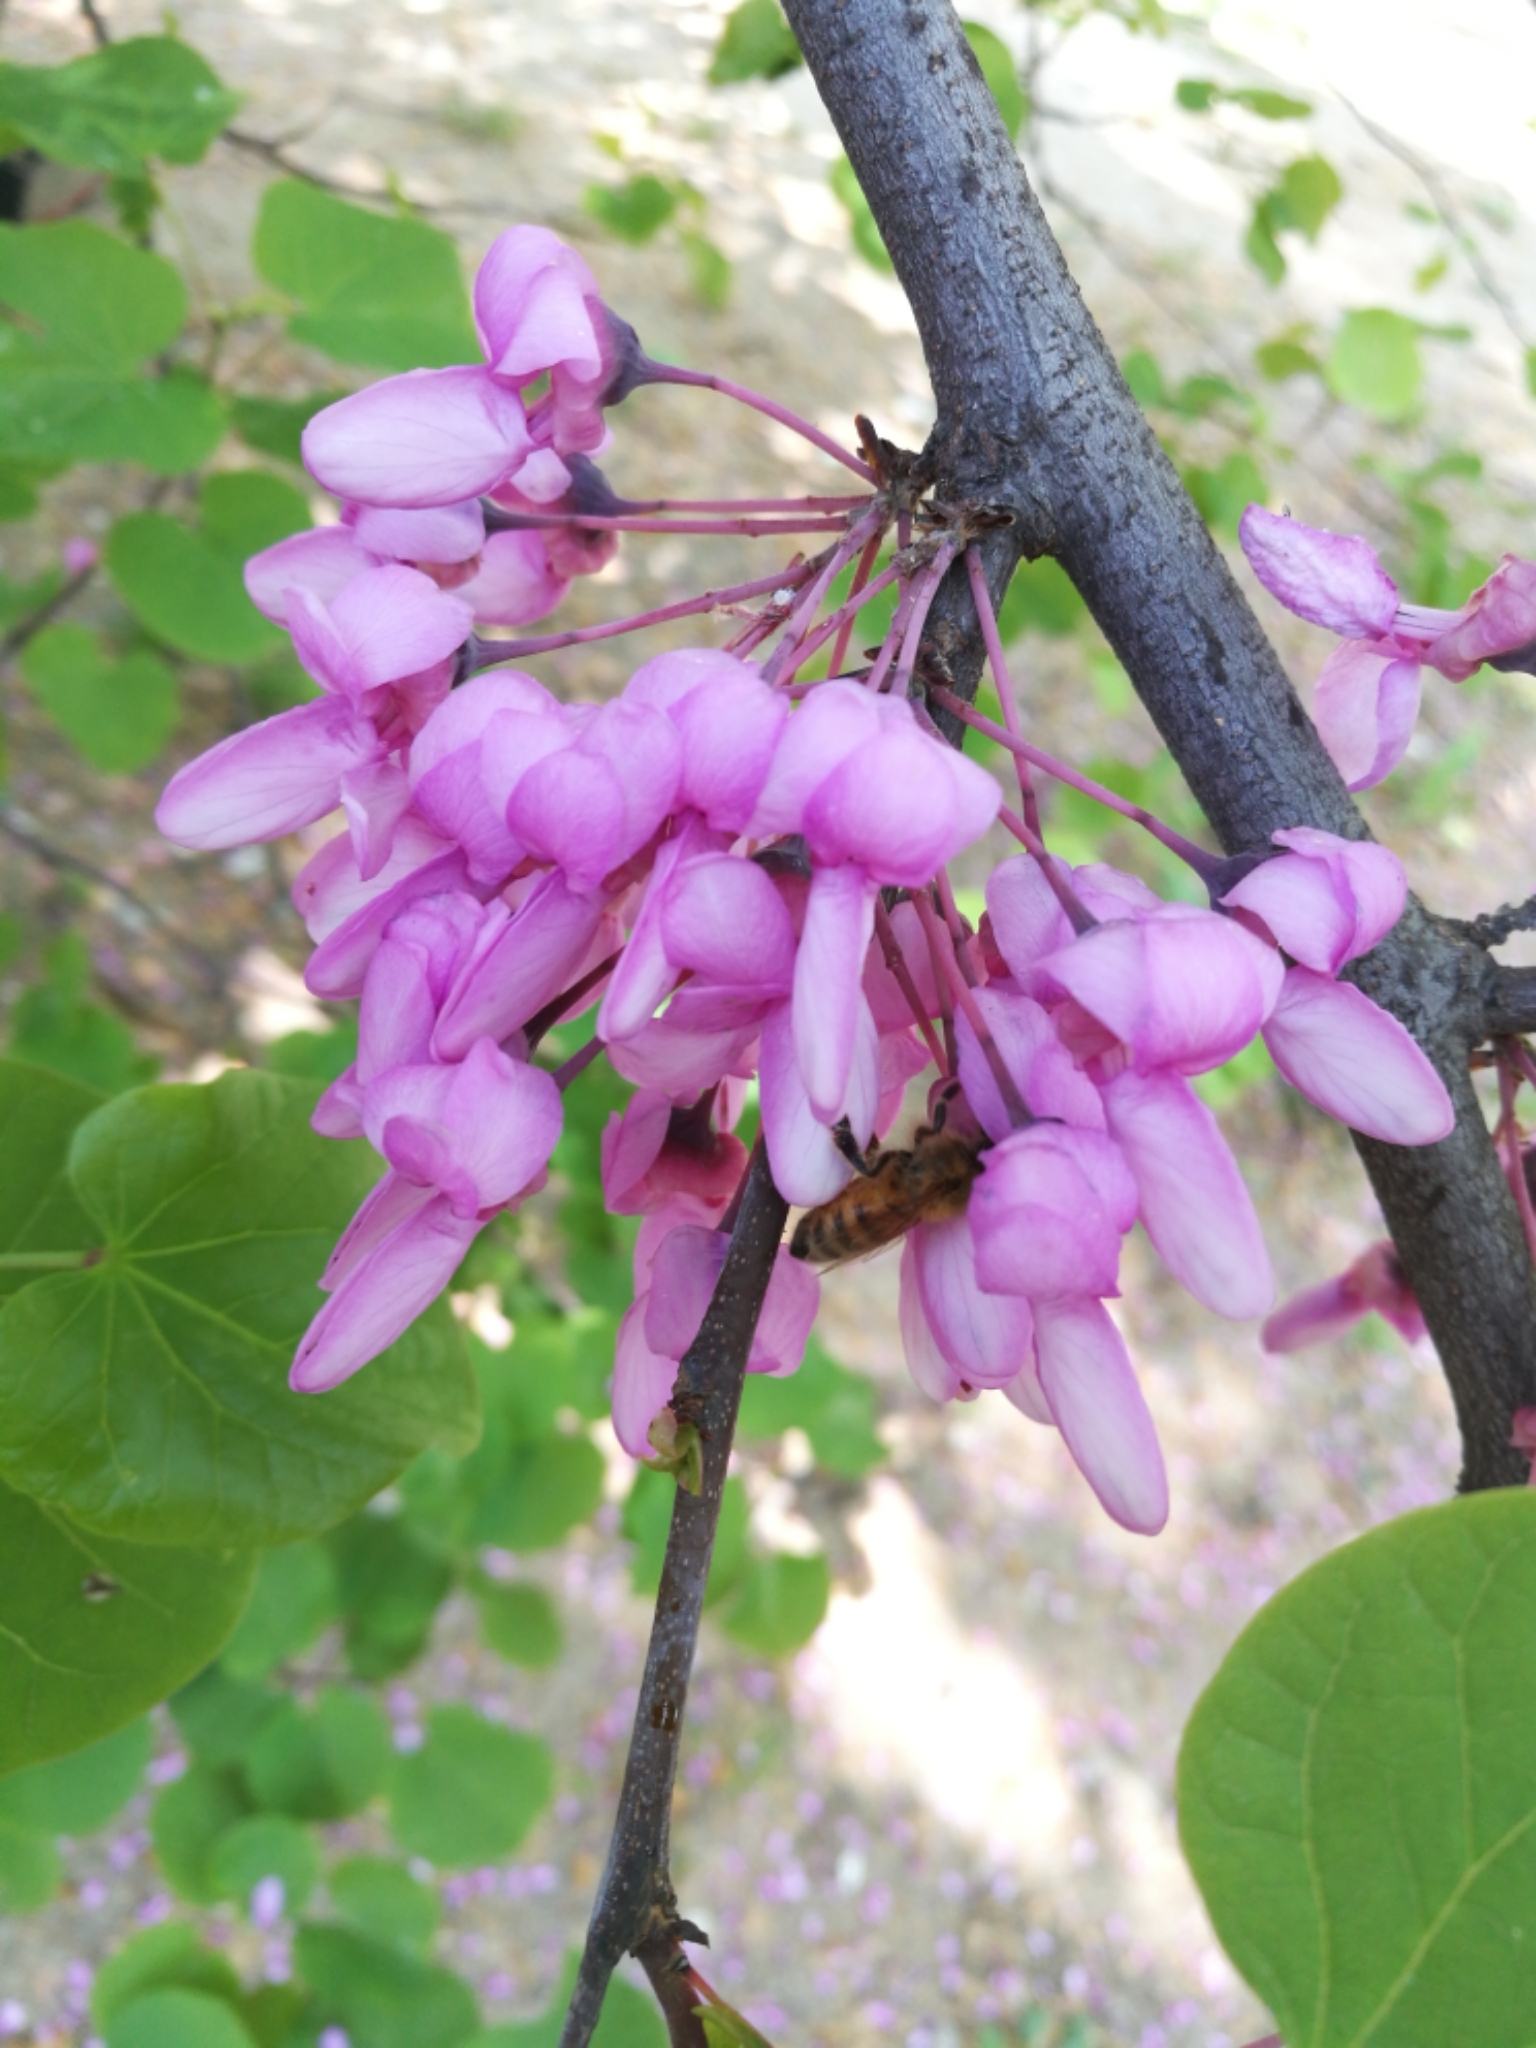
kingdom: Animalia
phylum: Arthropoda
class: Insecta
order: Hymenoptera
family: Apidae
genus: Apis
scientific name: Apis mellifera
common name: Honey bee
